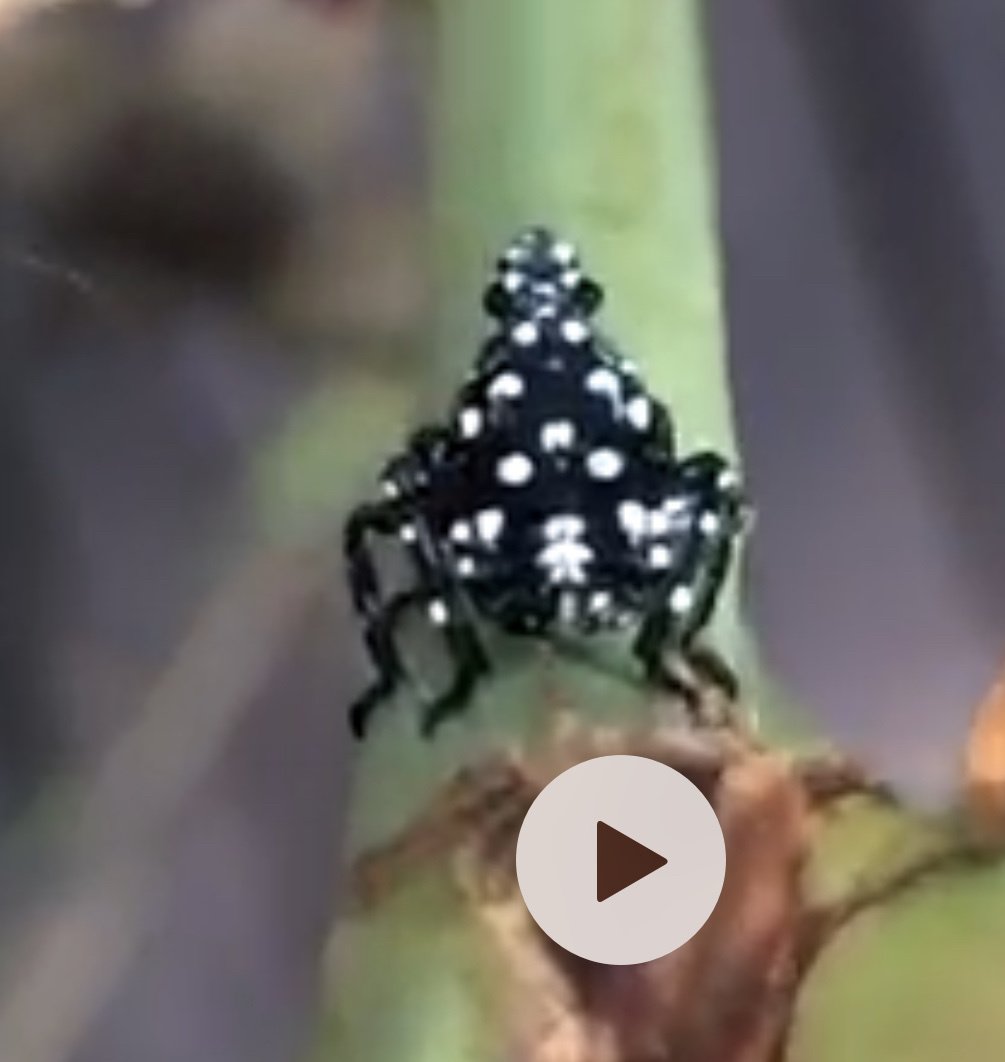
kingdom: Animalia
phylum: Arthropoda
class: Insecta
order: Hemiptera
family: Fulgoridae
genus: Lycorma
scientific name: Lycorma delicatula
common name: Spotted lanternfly
